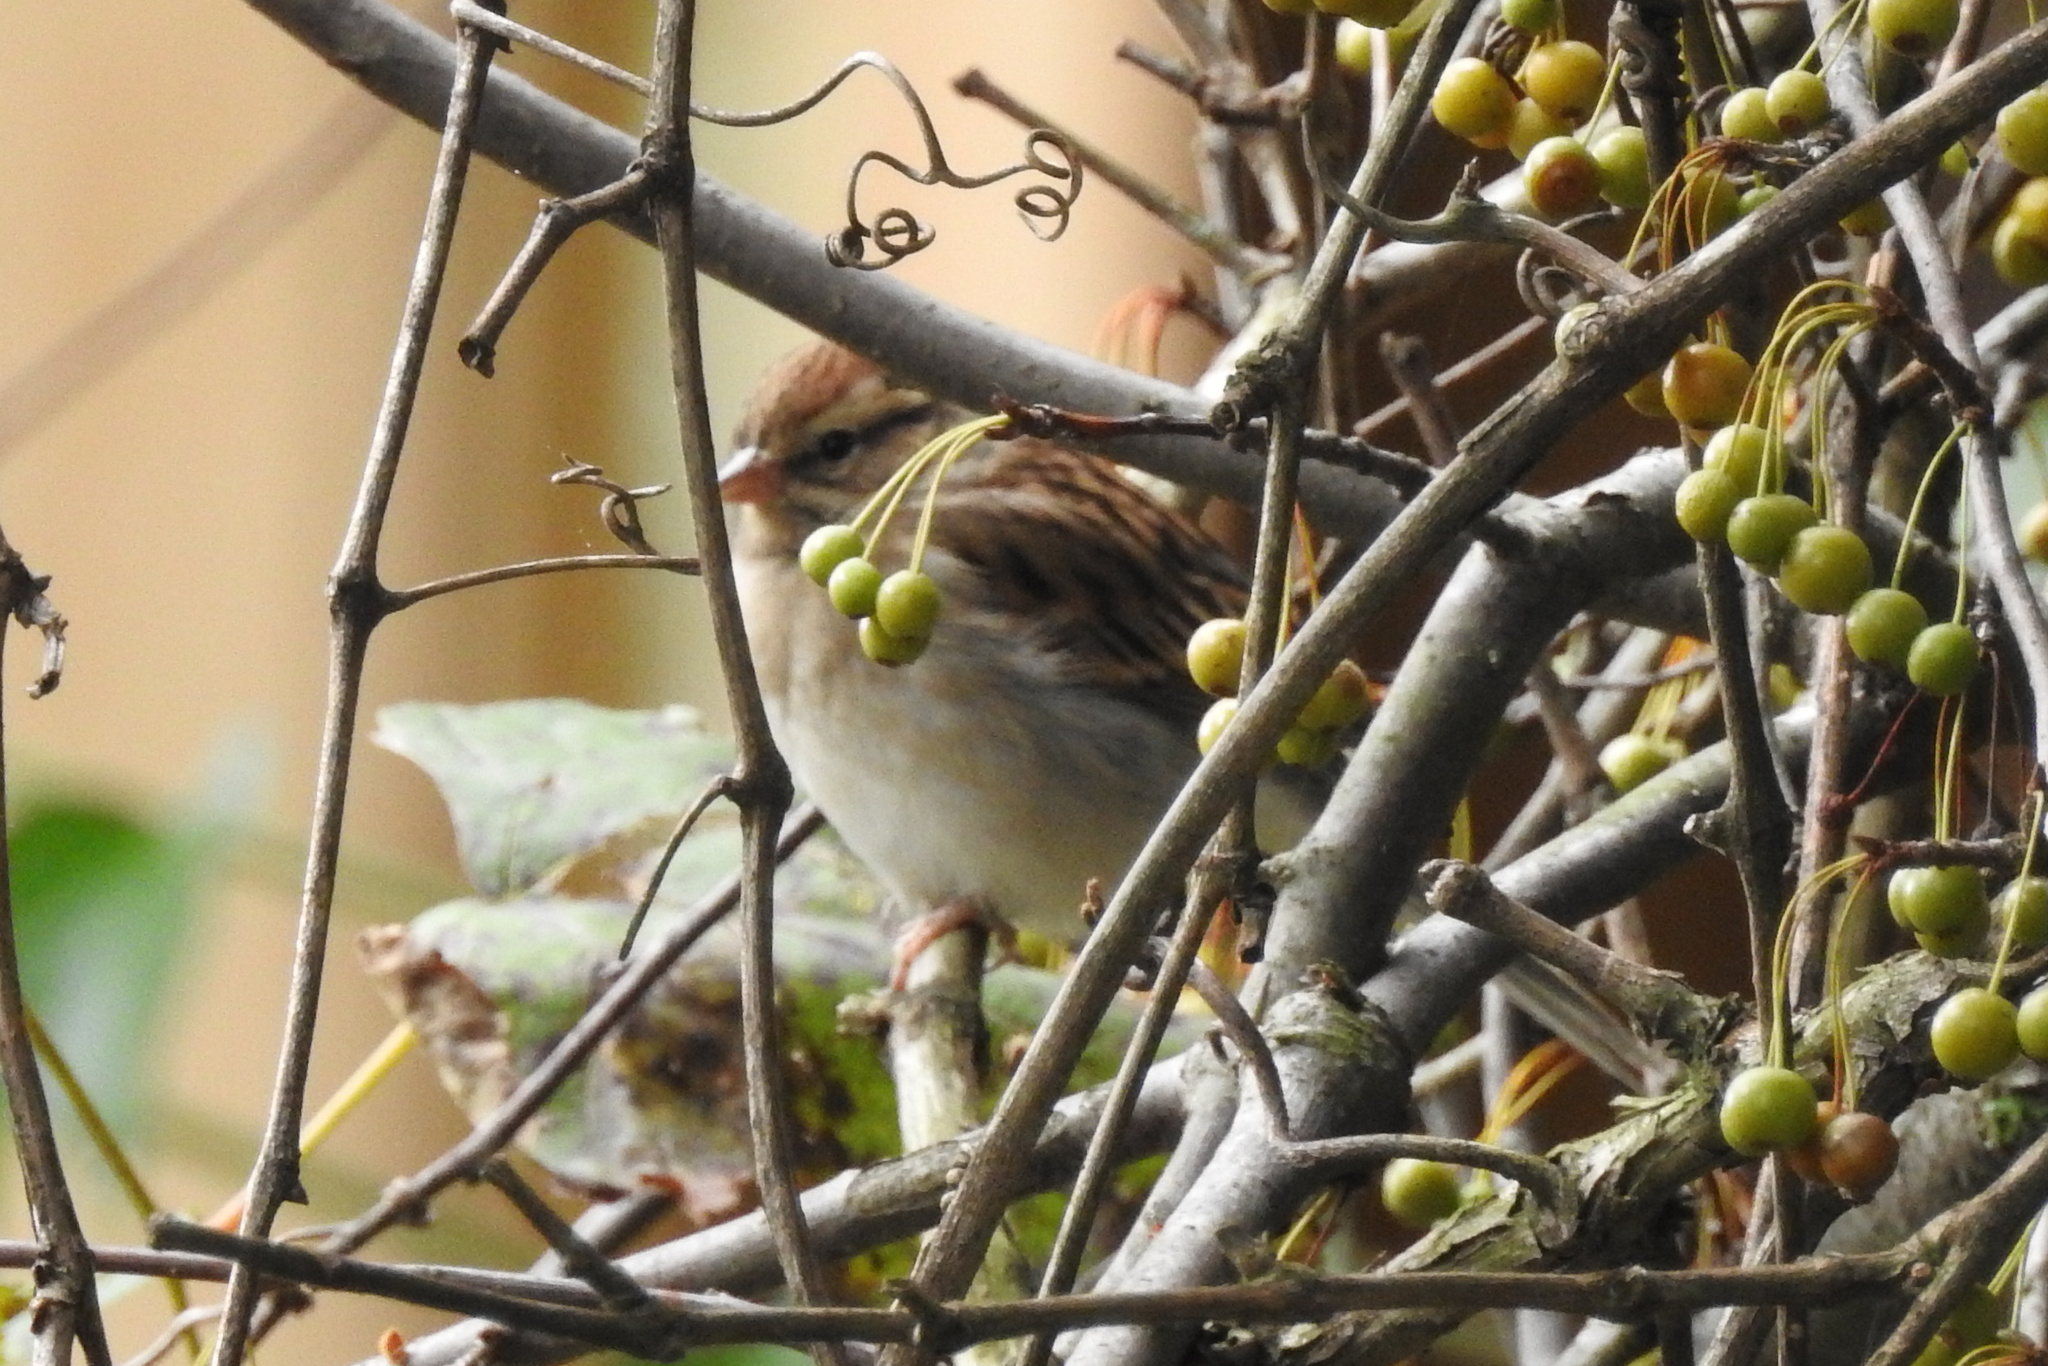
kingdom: Animalia
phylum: Chordata
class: Aves
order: Passeriformes
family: Passerellidae
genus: Spizella
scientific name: Spizella passerina
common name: Chipping sparrow
